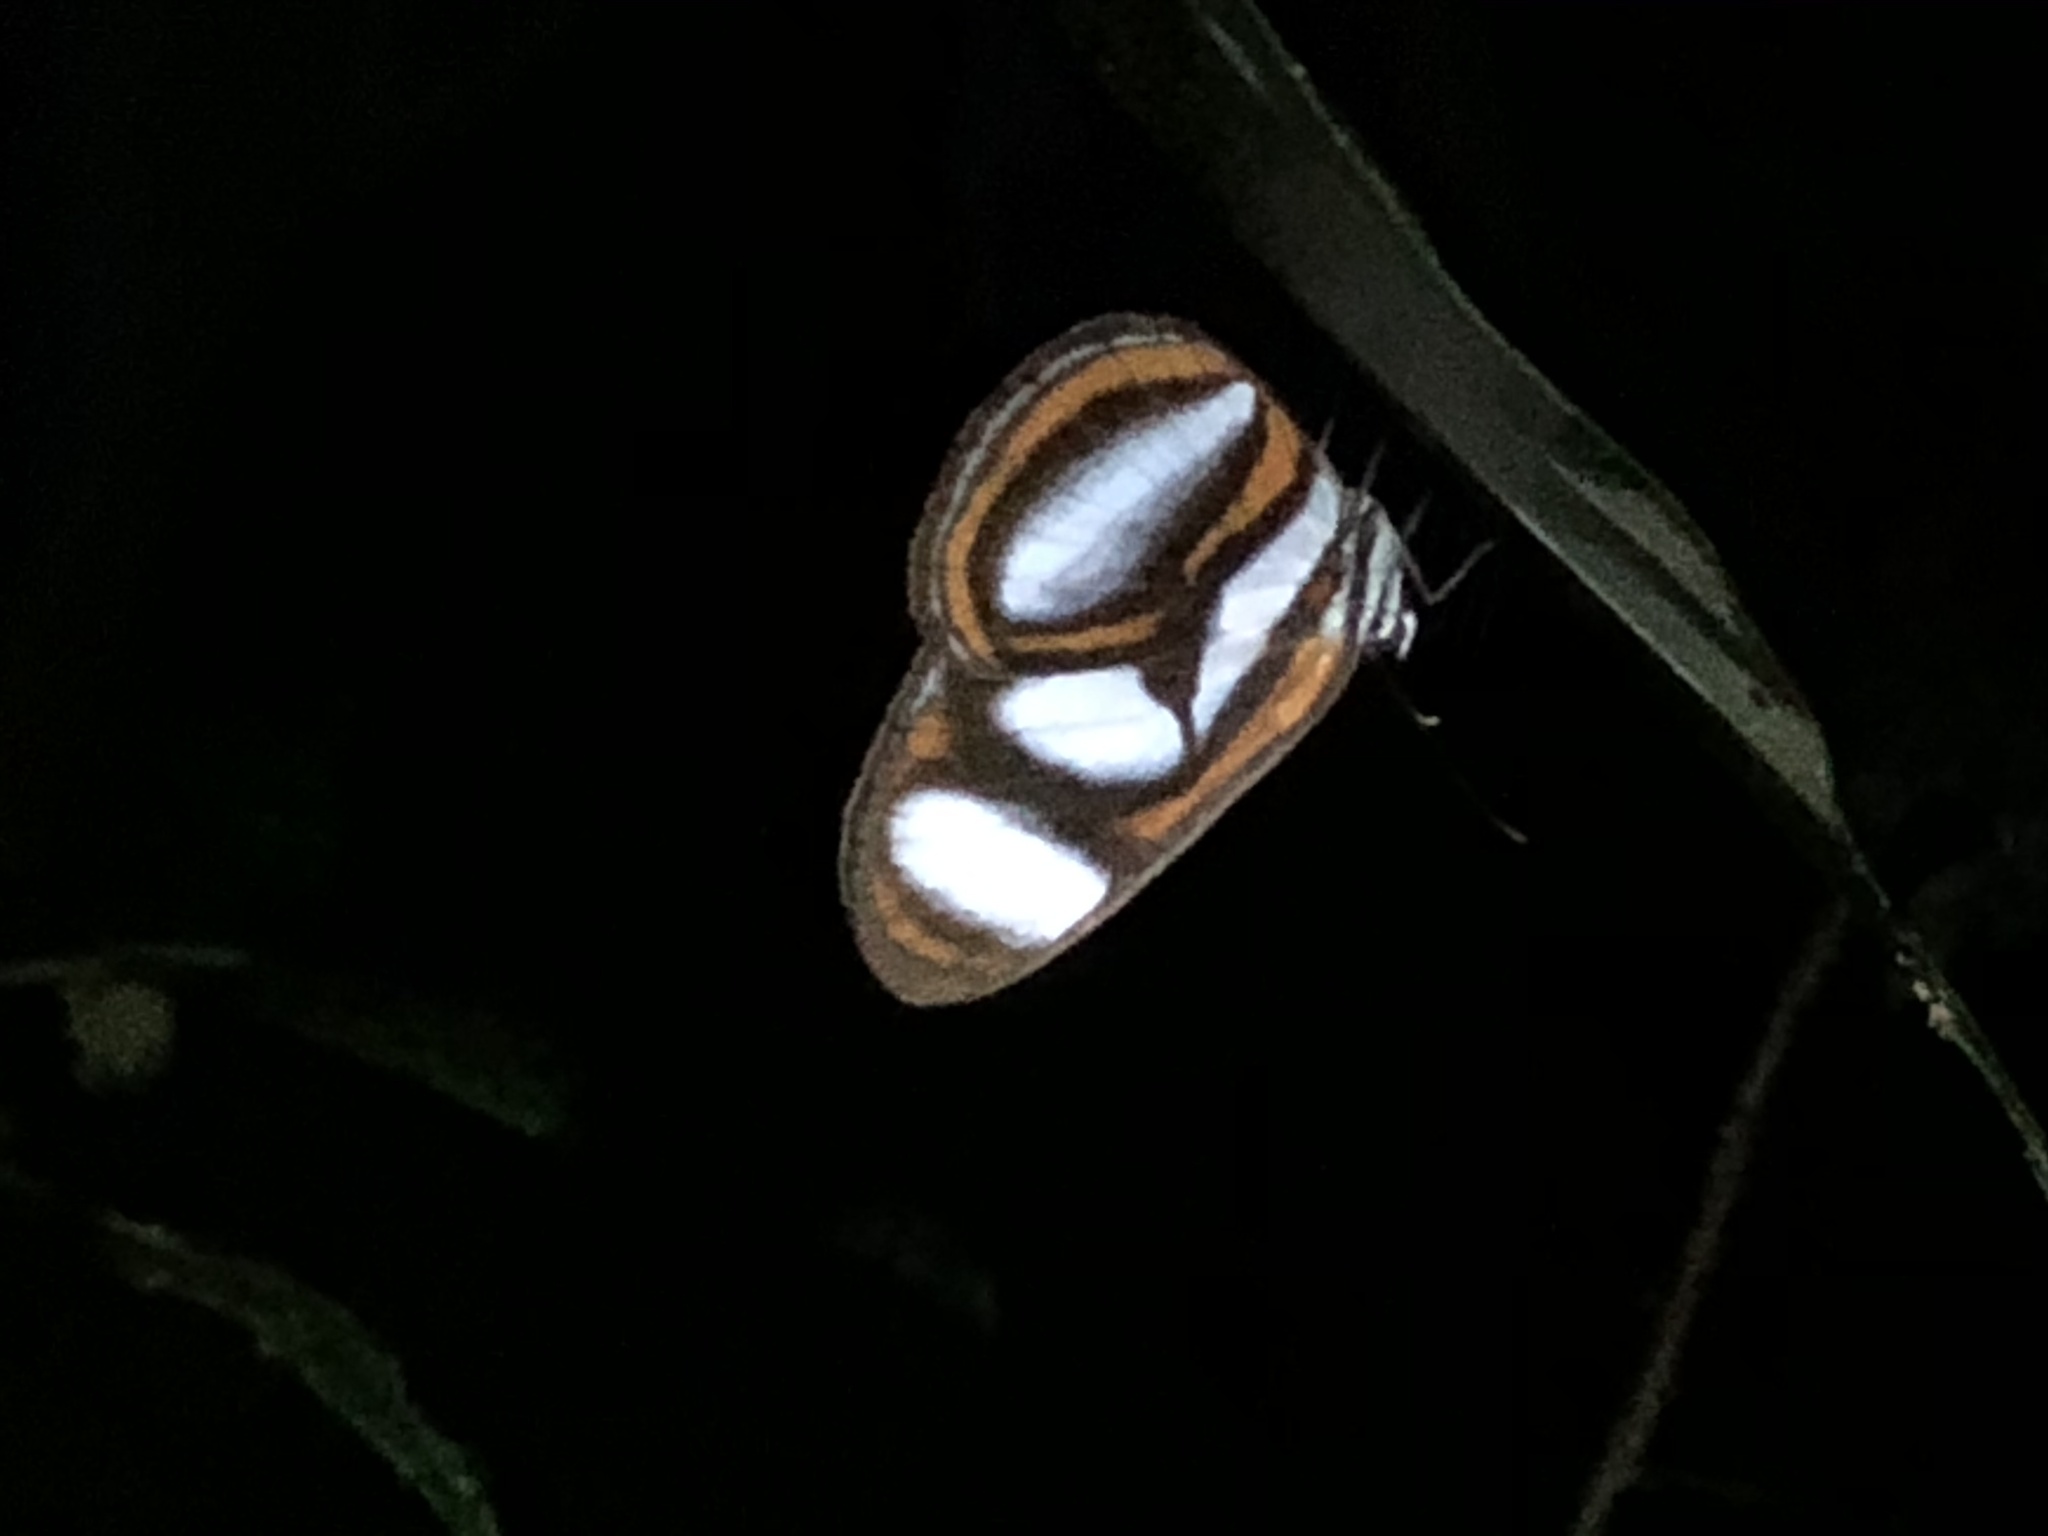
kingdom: Animalia
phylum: Arthropoda
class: Insecta
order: Lepidoptera
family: Nymphalidae
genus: Vila
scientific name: Vila emilia
